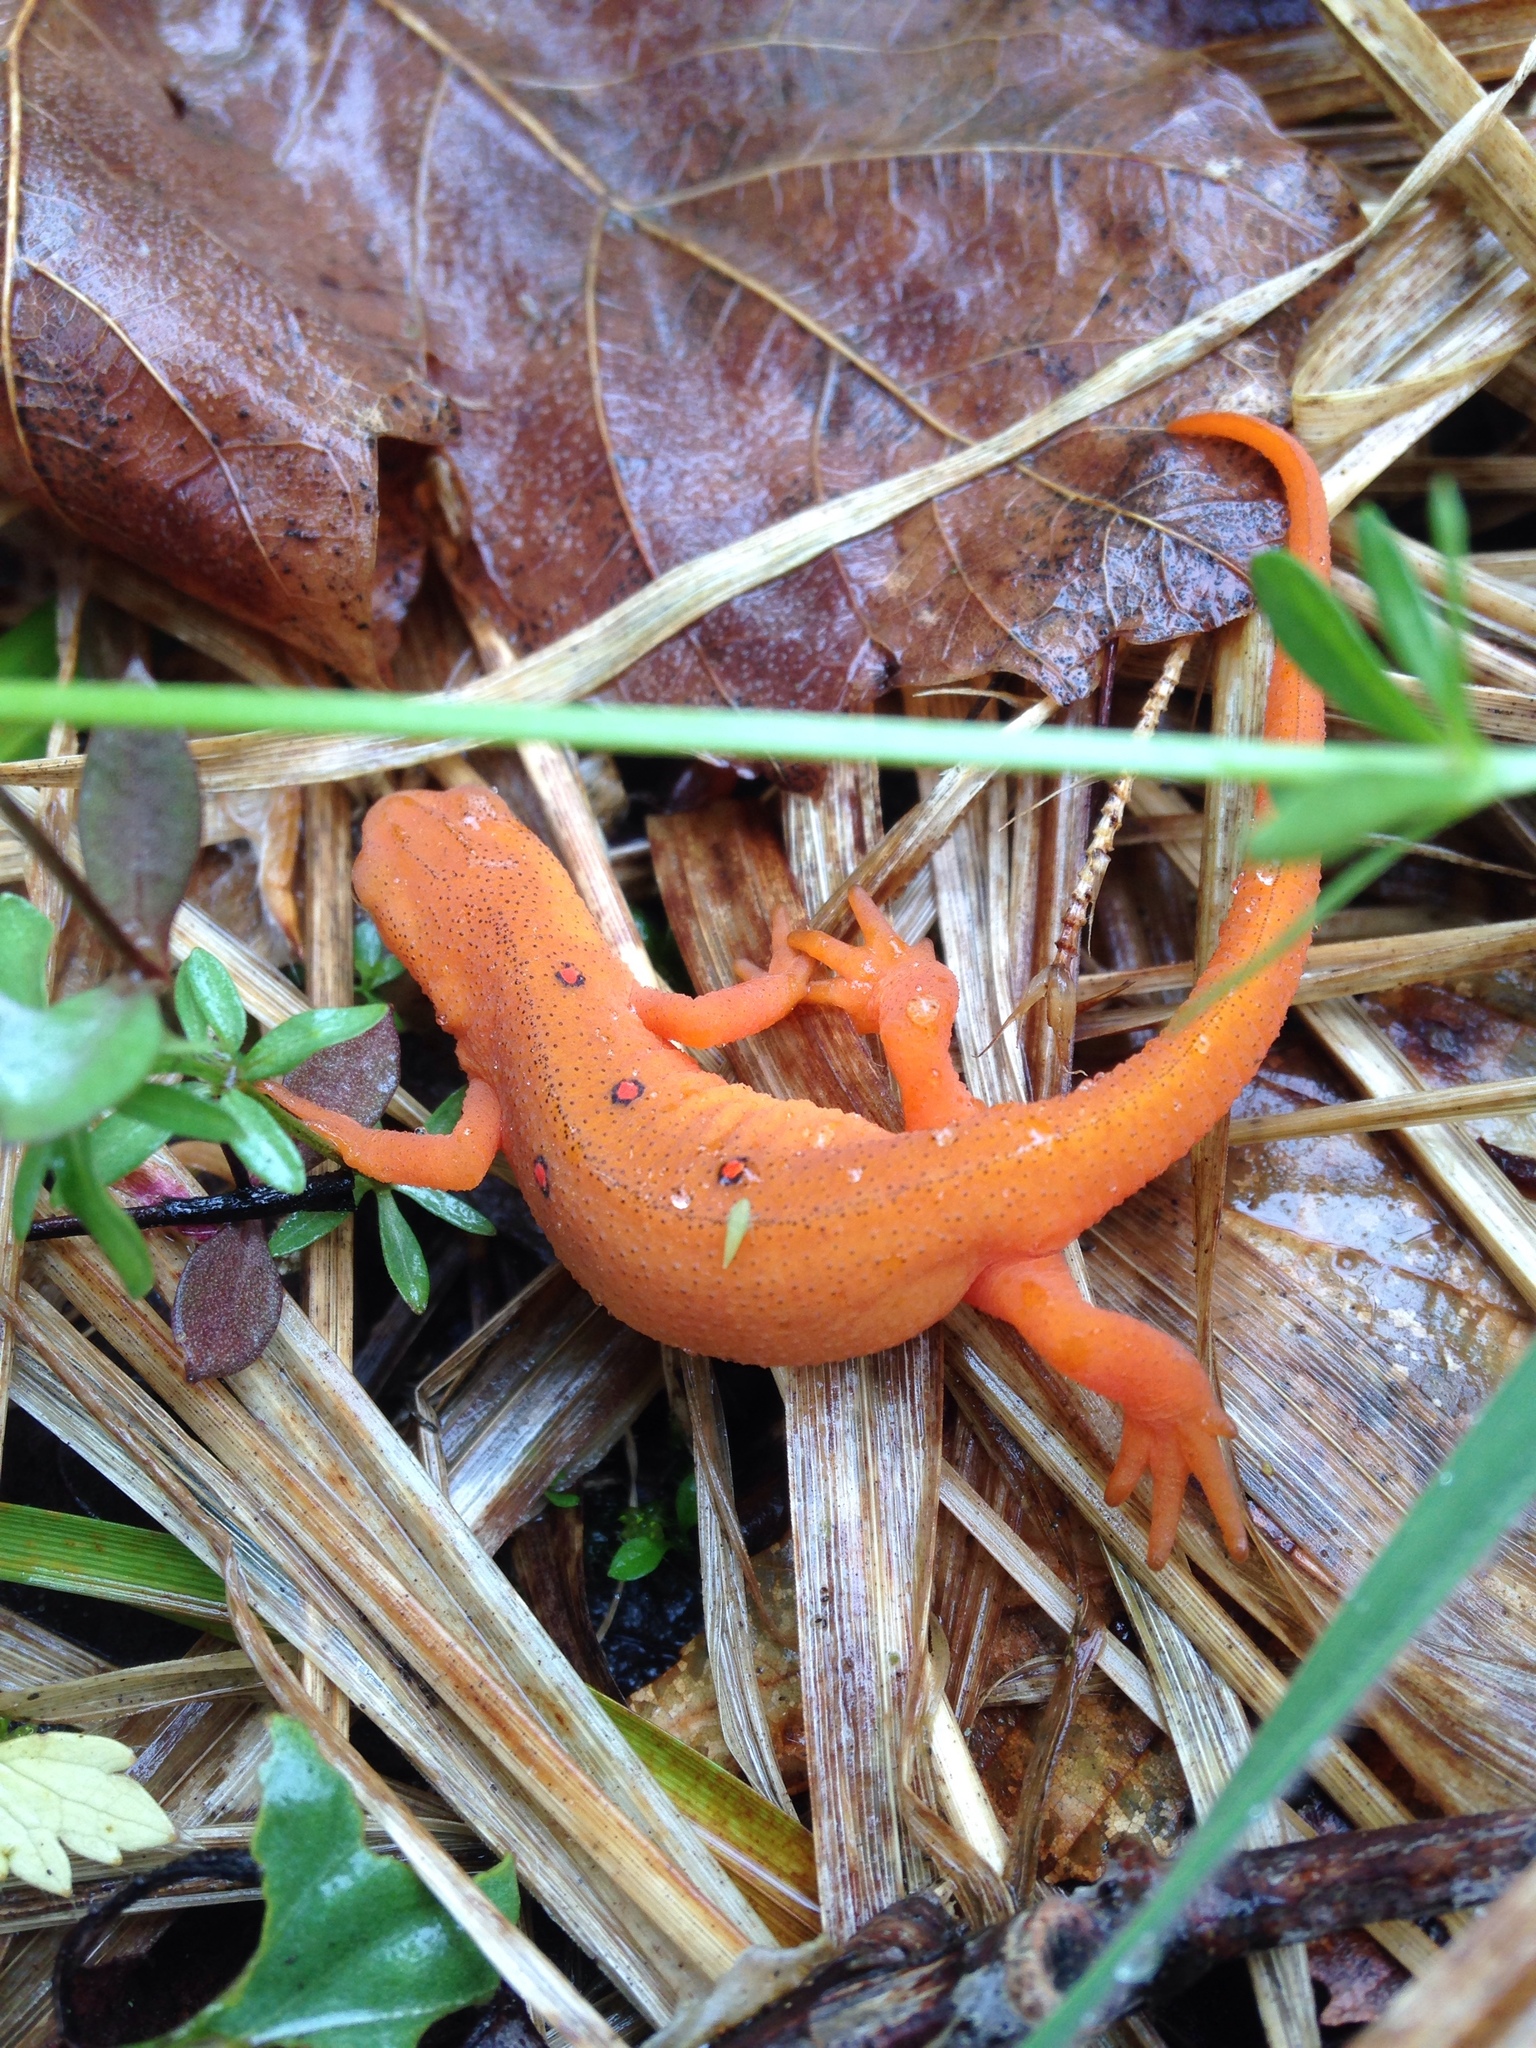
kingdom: Animalia
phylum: Chordata
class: Amphibia
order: Caudata
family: Salamandridae
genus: Notophthalmus
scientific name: Notophthalmus viridescens
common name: Eastern newt
